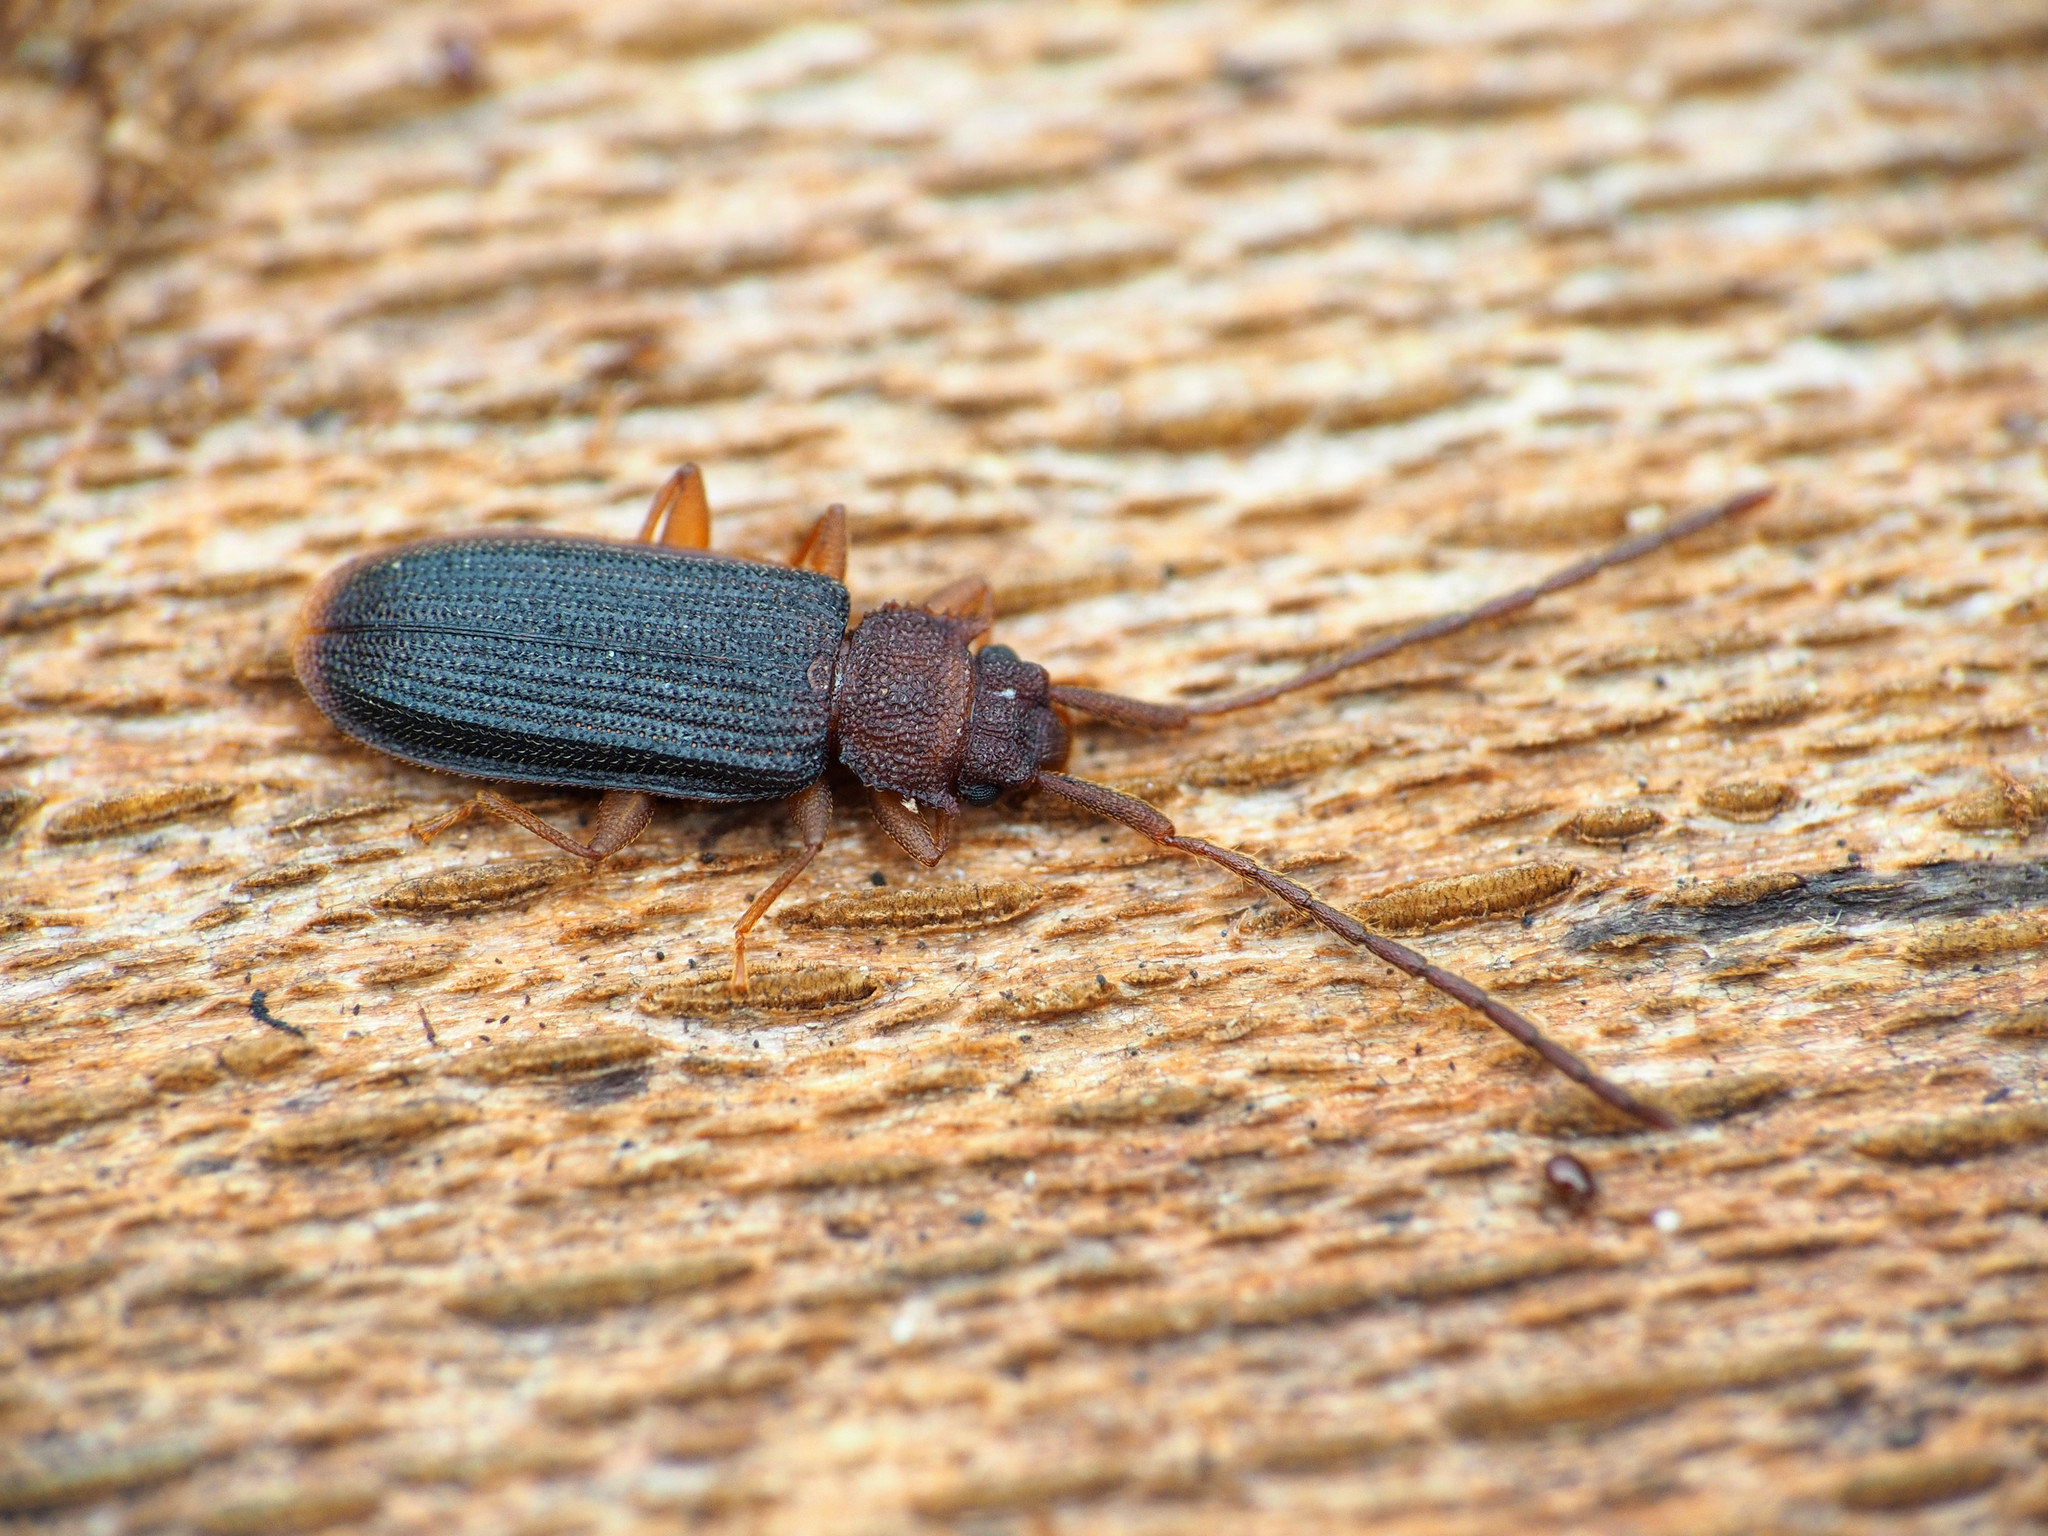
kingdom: Animalia
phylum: Arthropoda
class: Insecta
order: Coleoptera
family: Silvanidae
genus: Uleiota
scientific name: Uleiota dubia
